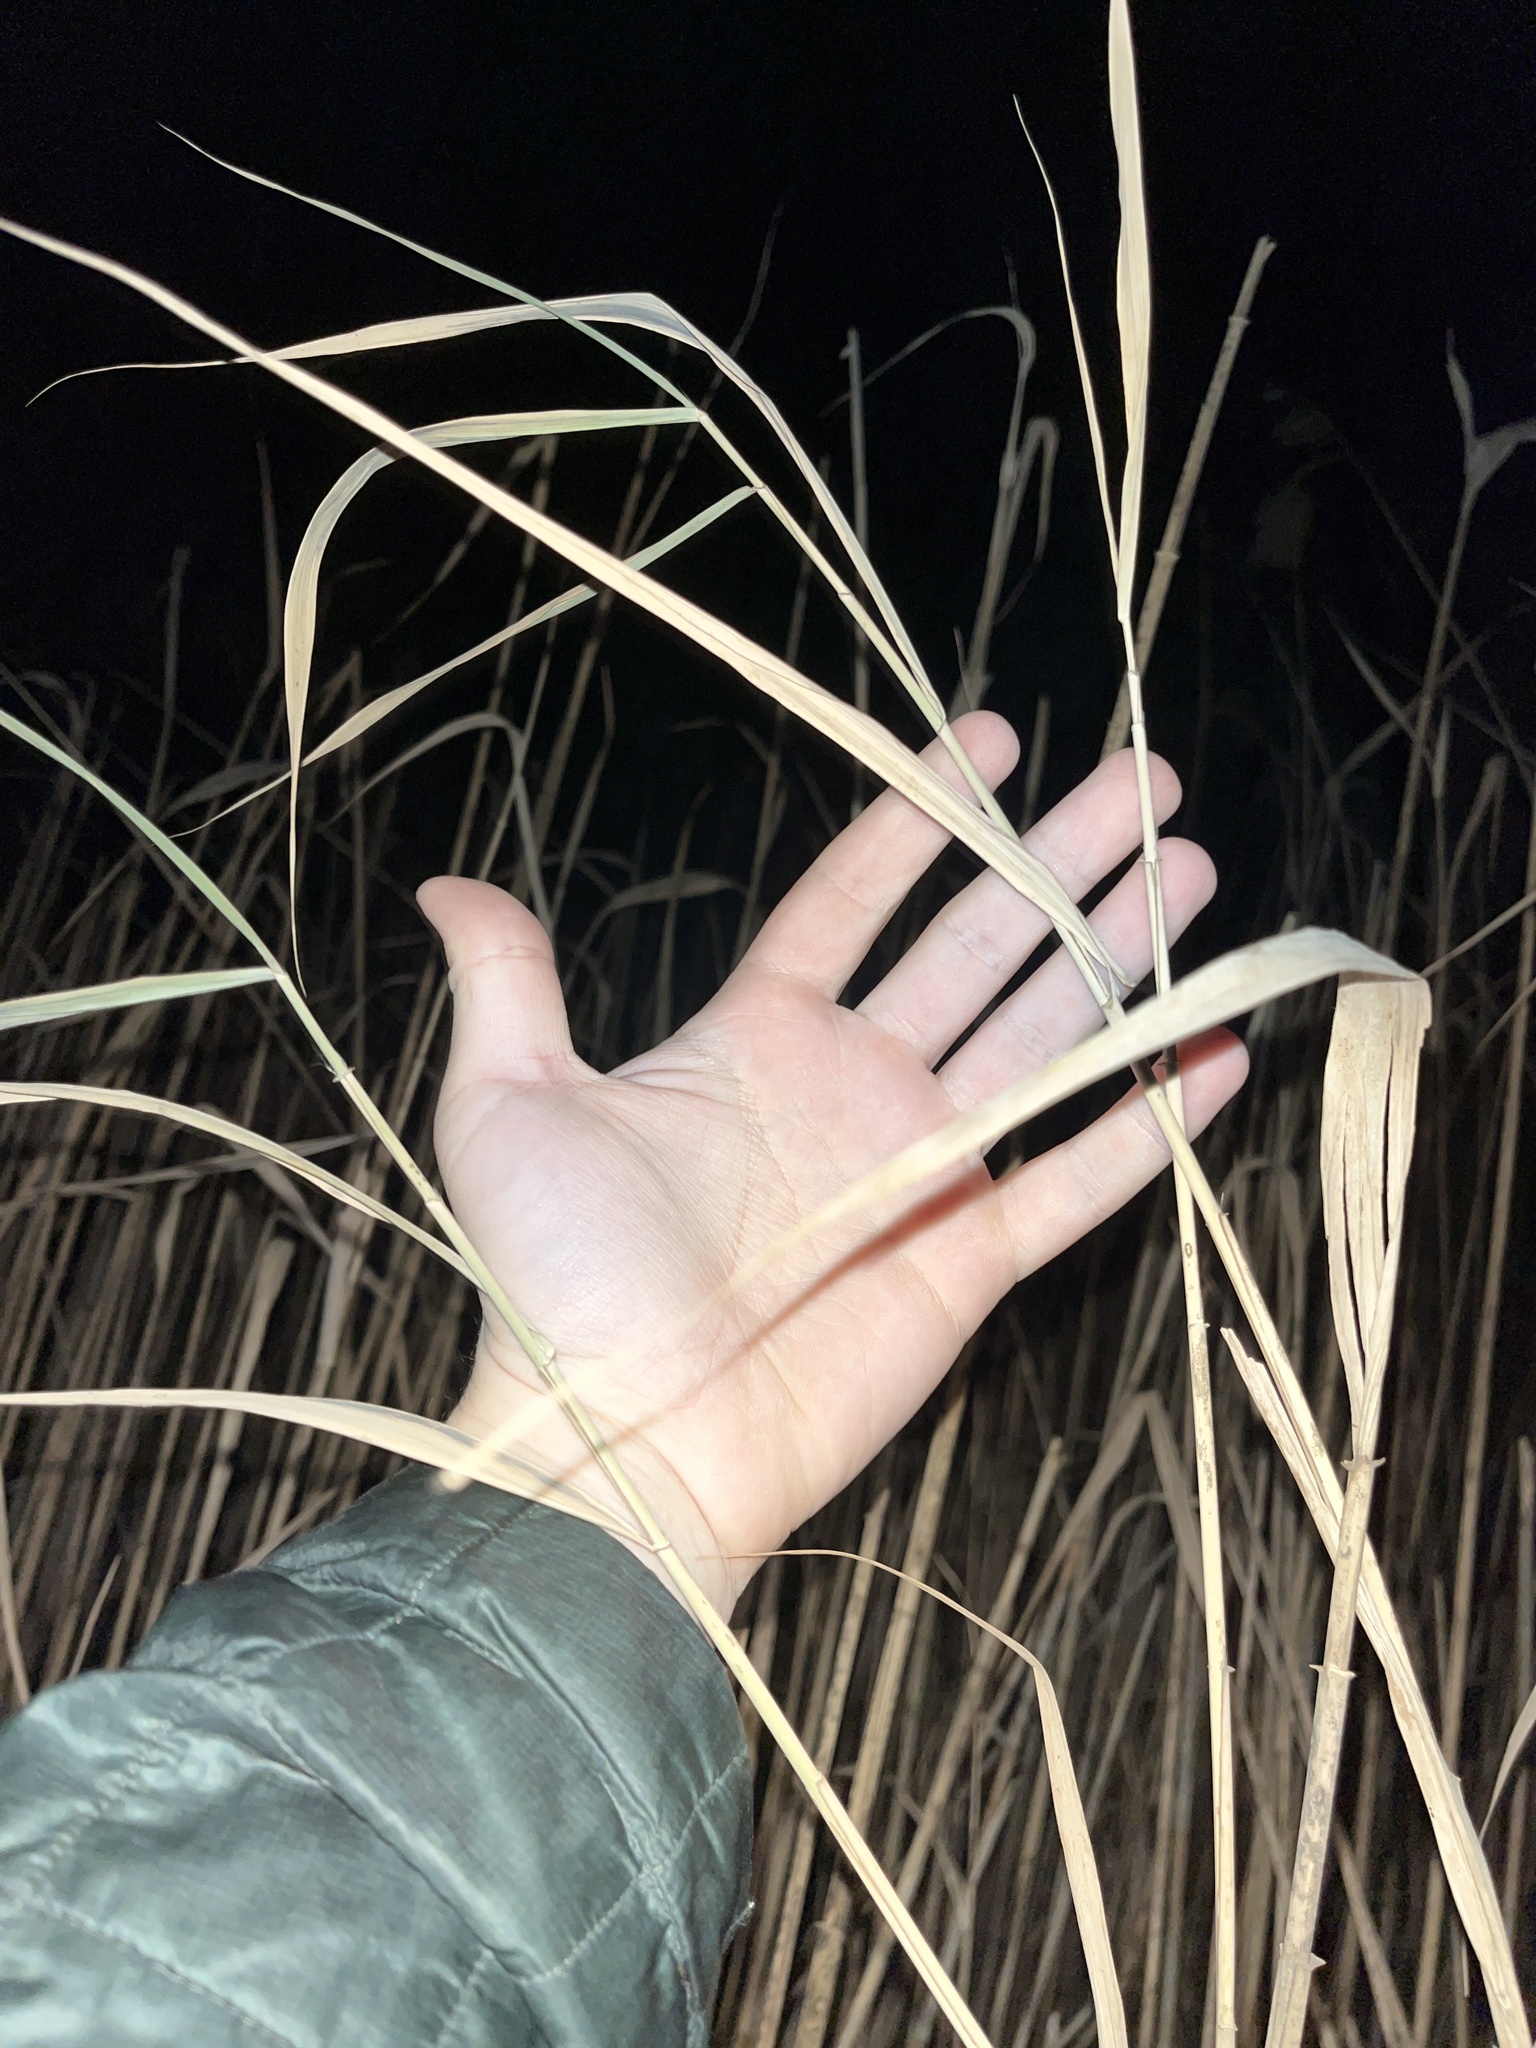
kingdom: Plantae
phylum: Tracheophyta
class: Liliopsida
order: Poales
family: Poaceae
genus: Phragmites
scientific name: Phragmites australis
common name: Common reed
